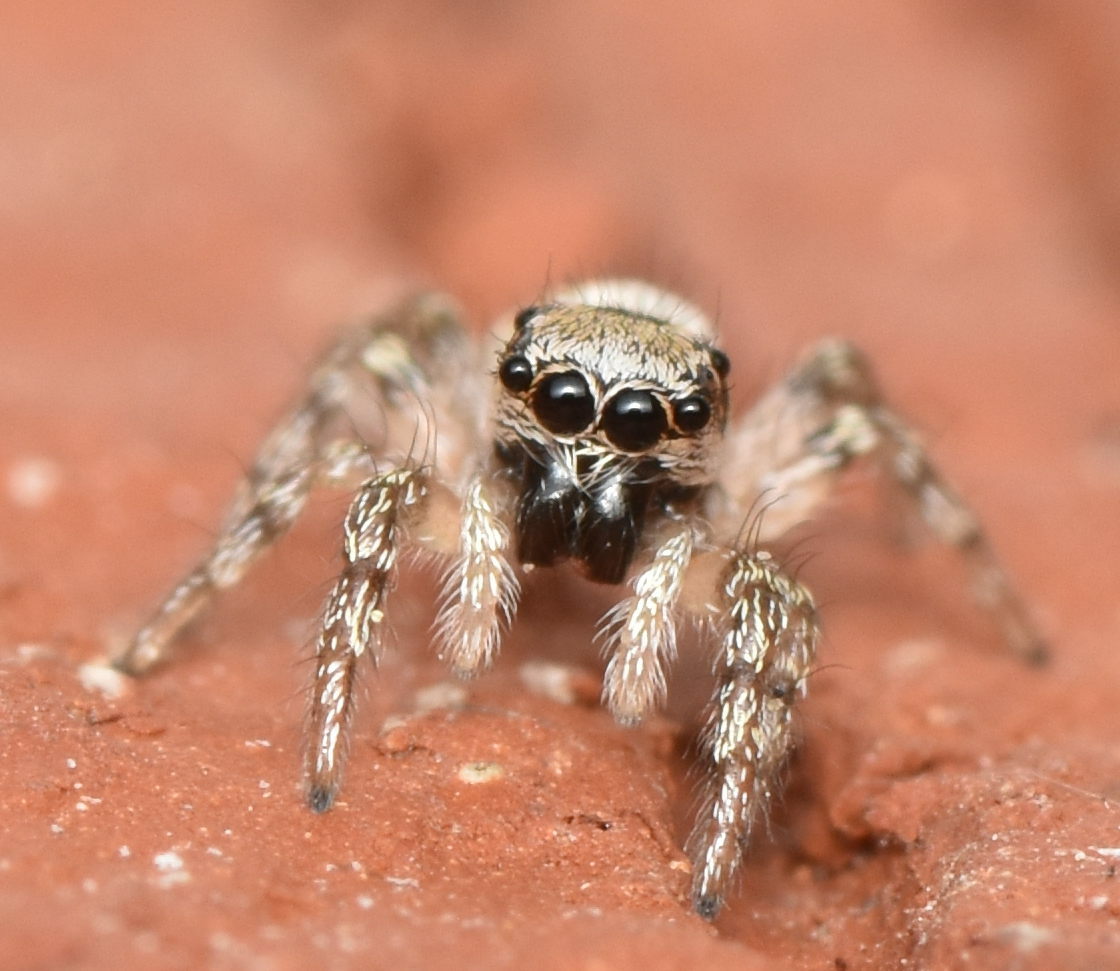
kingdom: Animalia
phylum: Arthropoda
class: Arachnida
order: Araneae
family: Salticidae
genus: Salticus
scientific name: Salticus scenicus
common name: Zebra jumper
